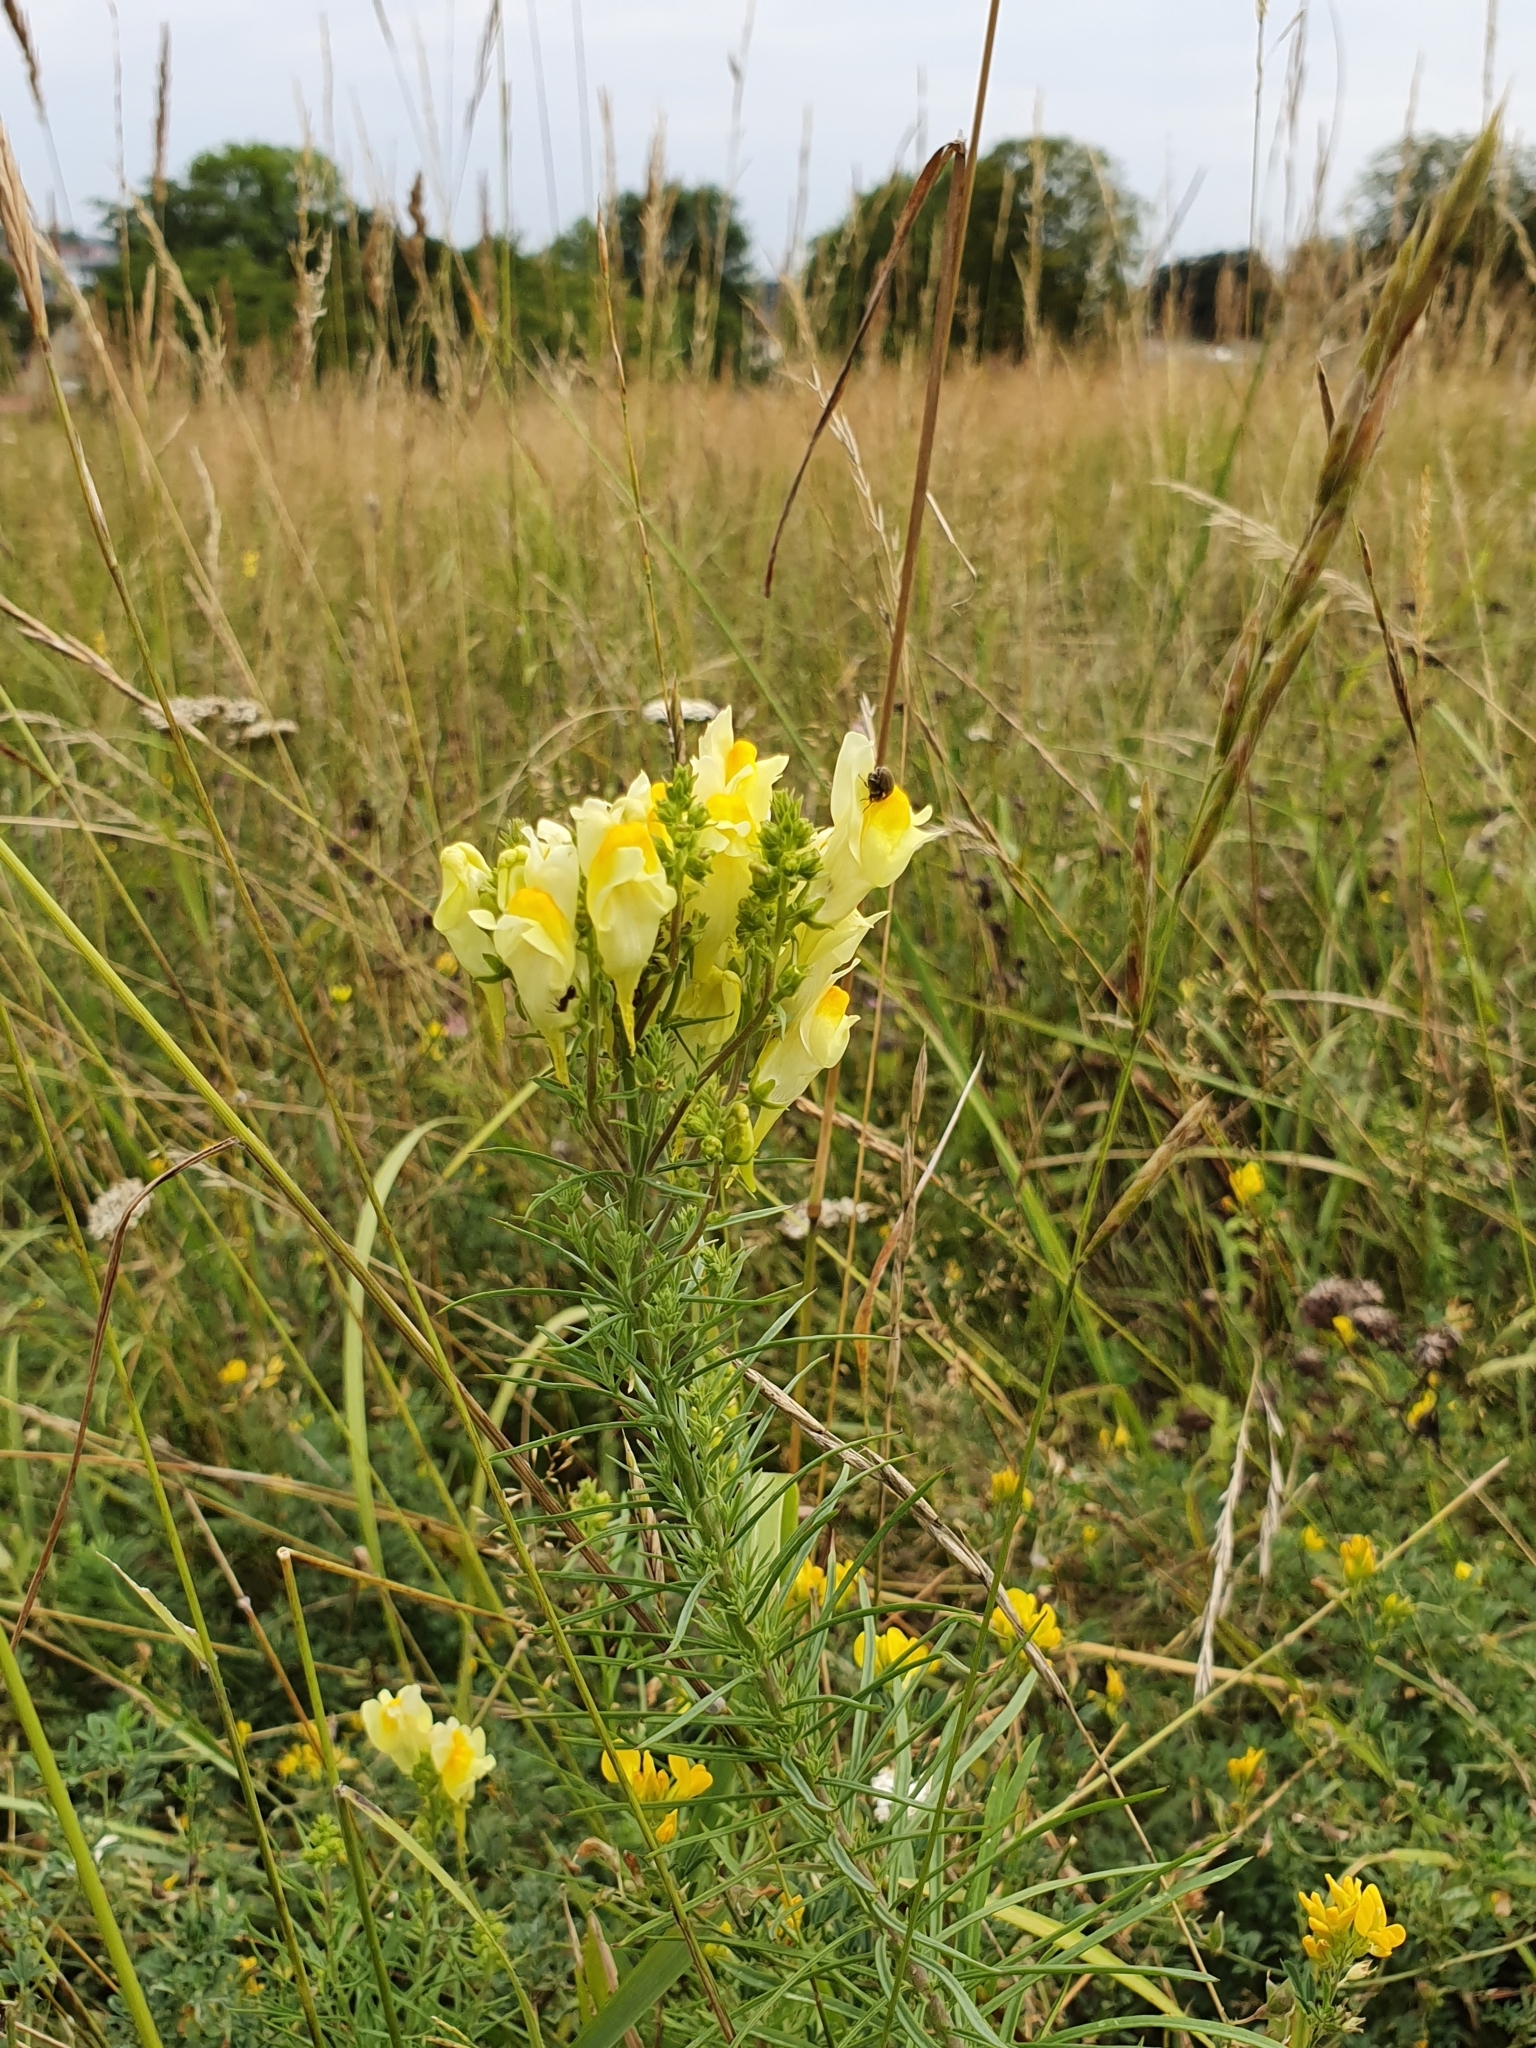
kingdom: Plantae
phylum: Tracheophyta
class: Magnoliopsida
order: Lamiales
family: Plantaginaceae
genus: Linaria
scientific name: Linaria vulgaris
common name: Butter and eggs
